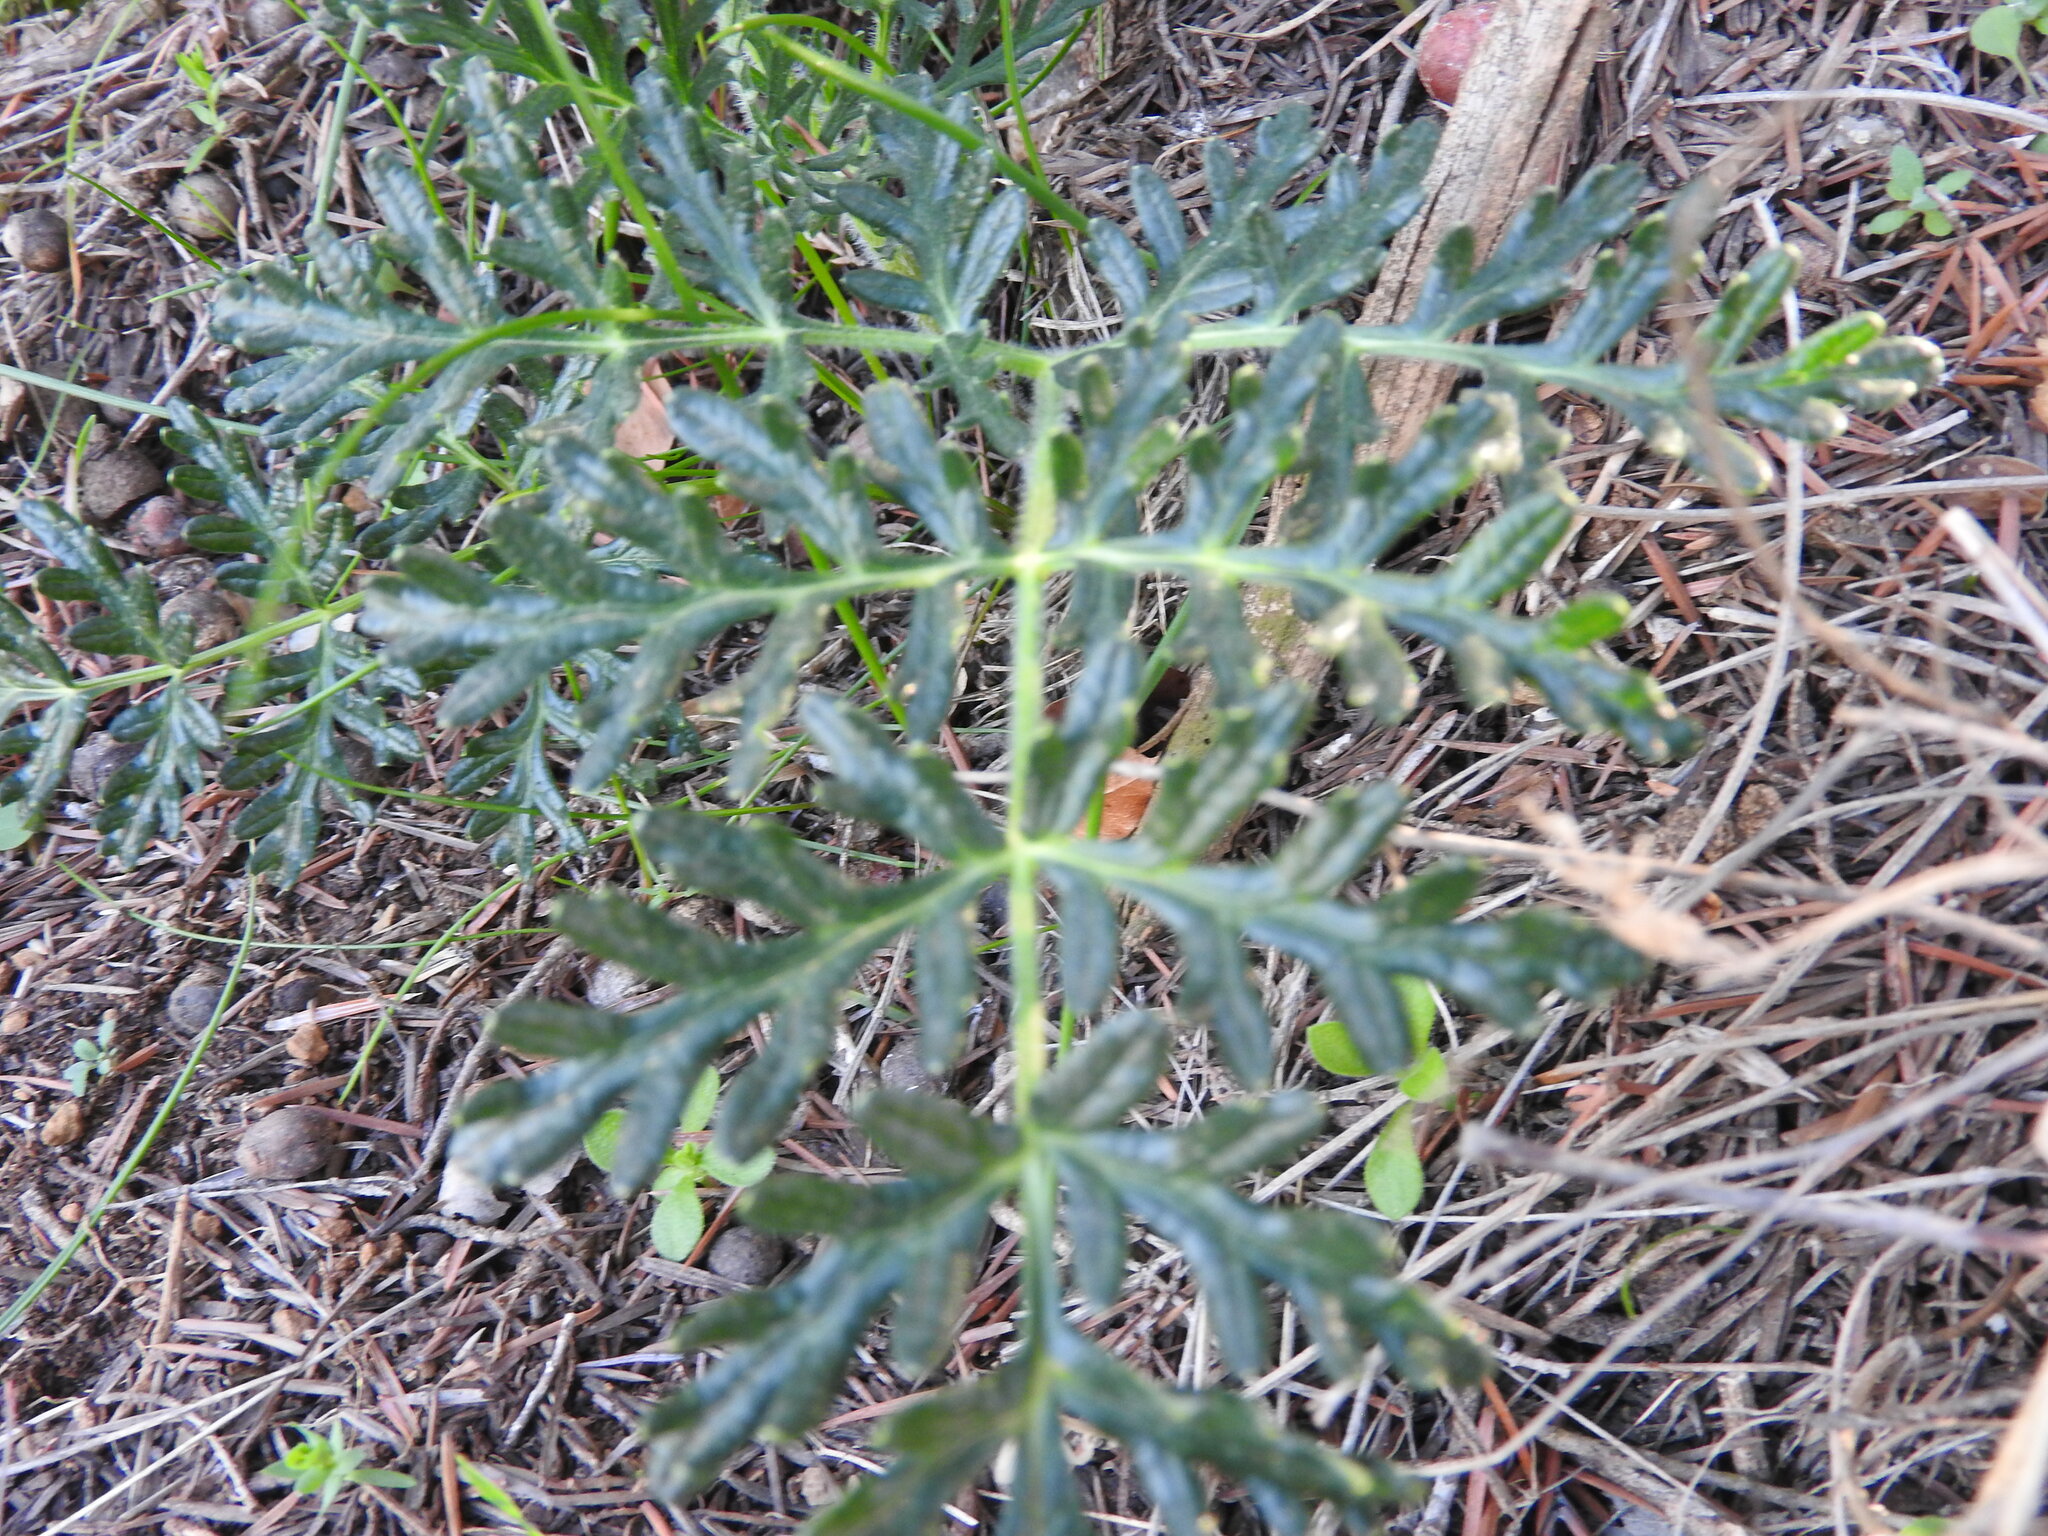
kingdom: Plantae
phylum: Tracheophyta
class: Magnoliopsida
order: Apiales
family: Apiaceae
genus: Thapsia
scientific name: Thapsia villosa
